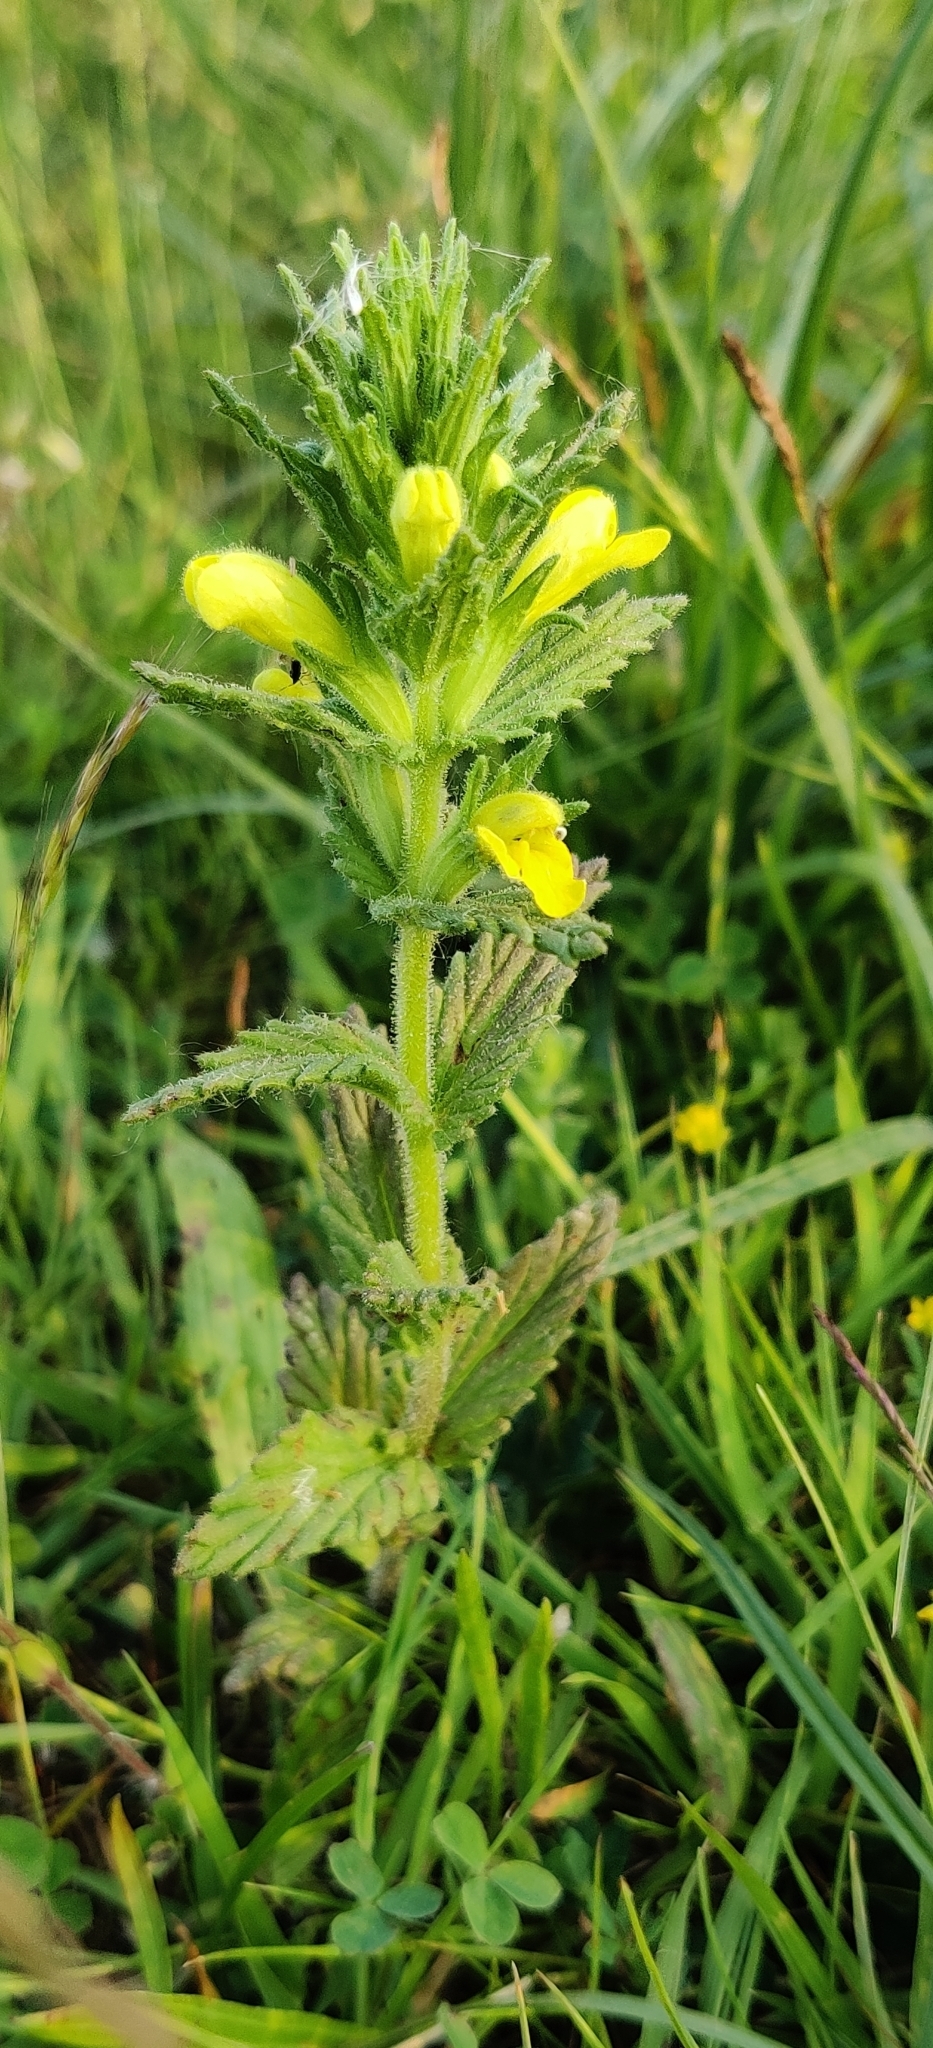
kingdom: Plantae
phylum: Tracheophyta
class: Magnoliopsida
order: Lamiales
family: Orobanchaceae
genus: Bellardia
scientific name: Bellardia viscosa
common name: Sticky parentucellia
